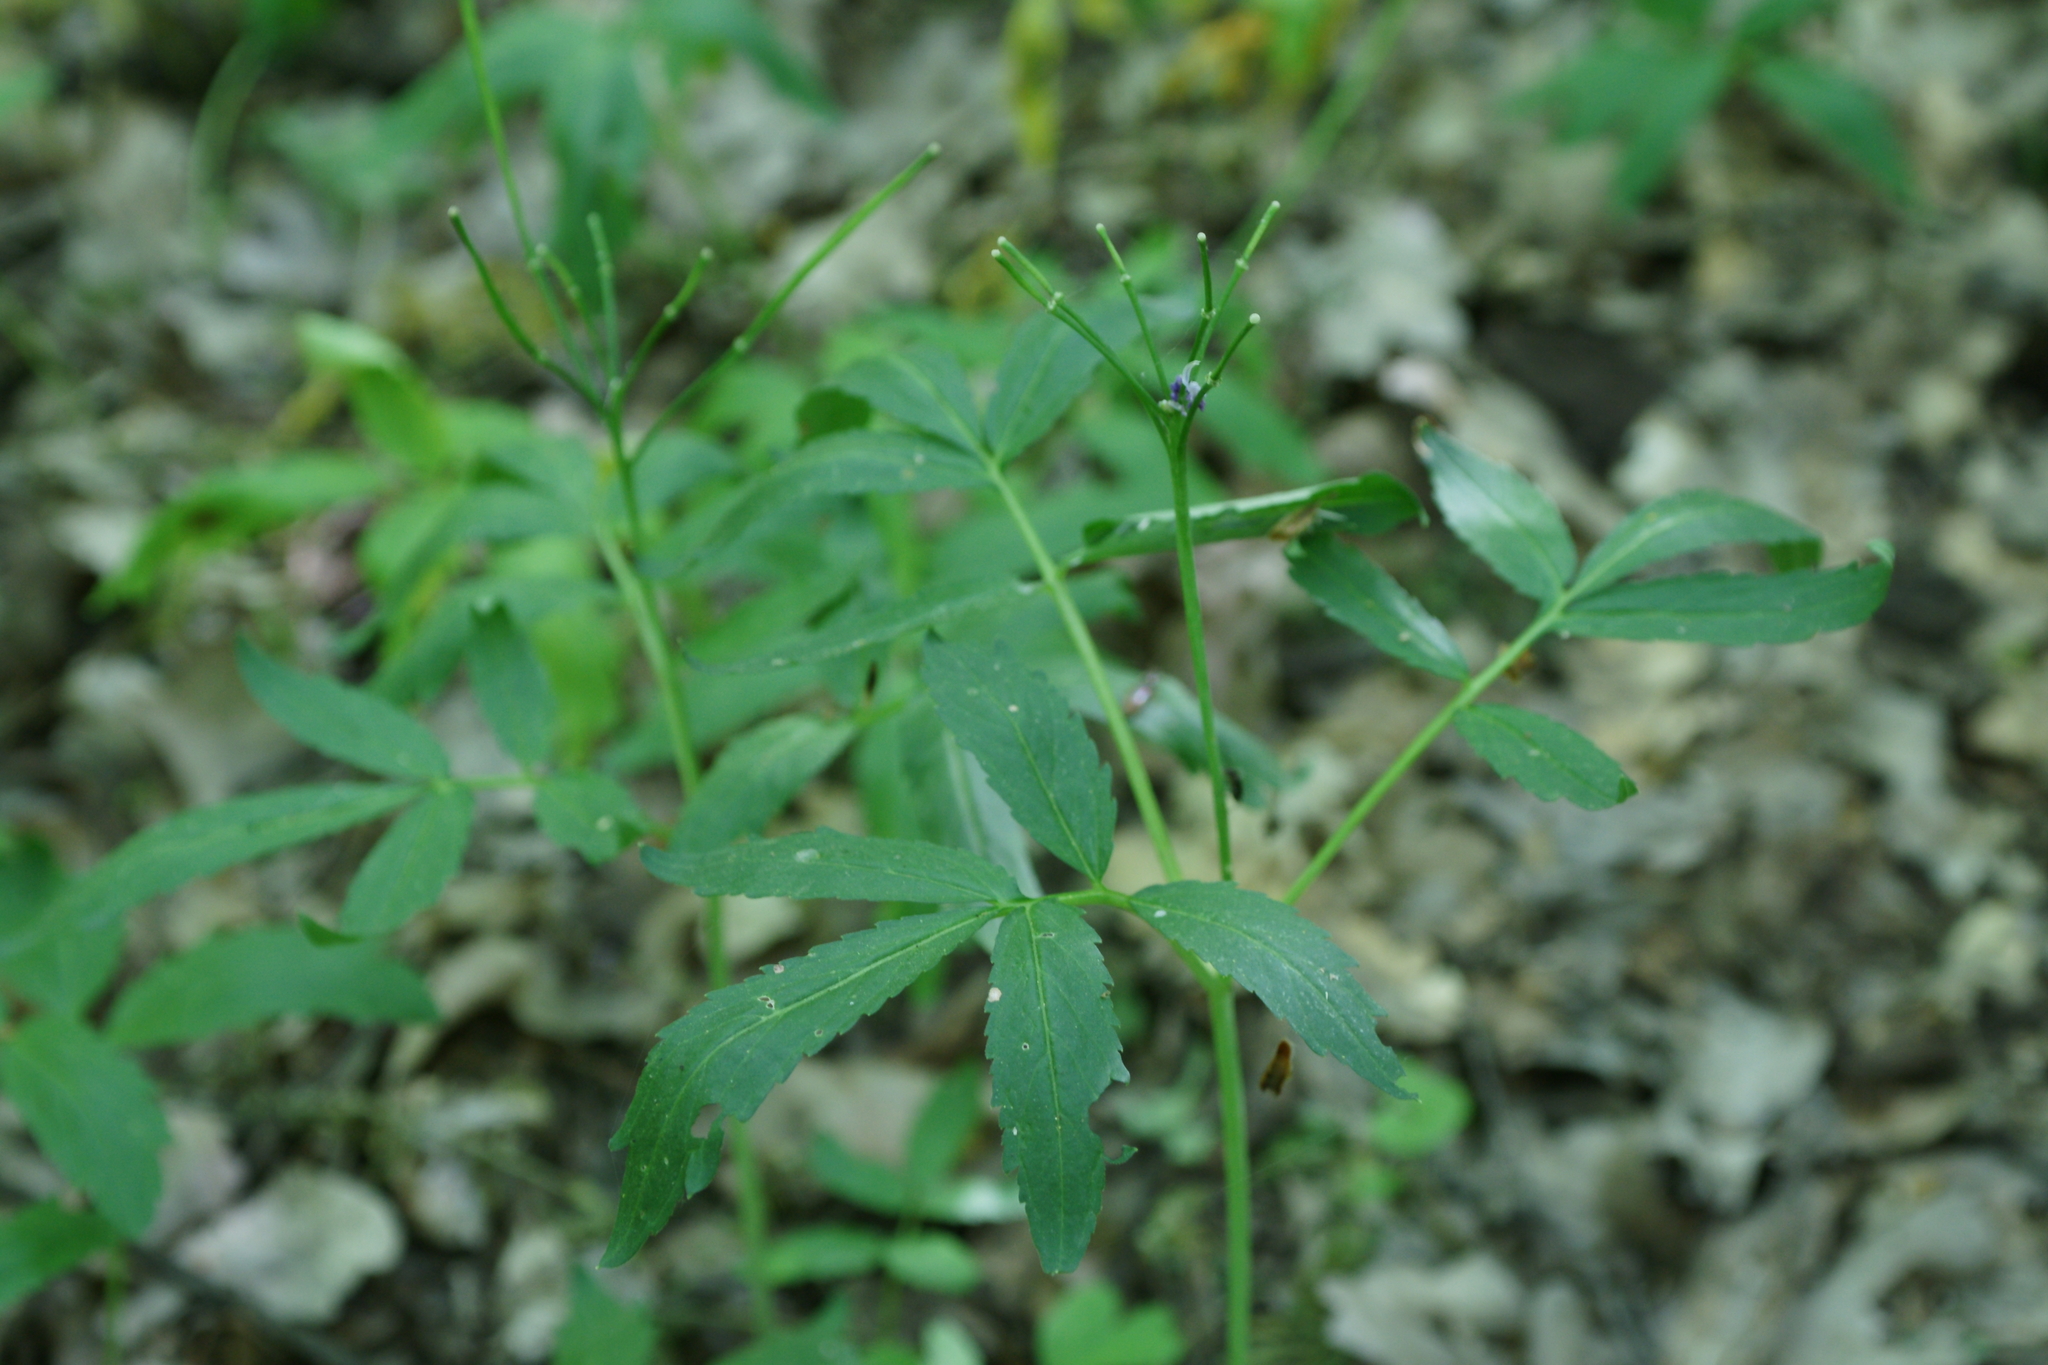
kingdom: Plantae
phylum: Tracheophyta
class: Magnoliopsida
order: Brassicales
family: Brassicaceae
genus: Cardamine
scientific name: Cardamine quinquefolia
